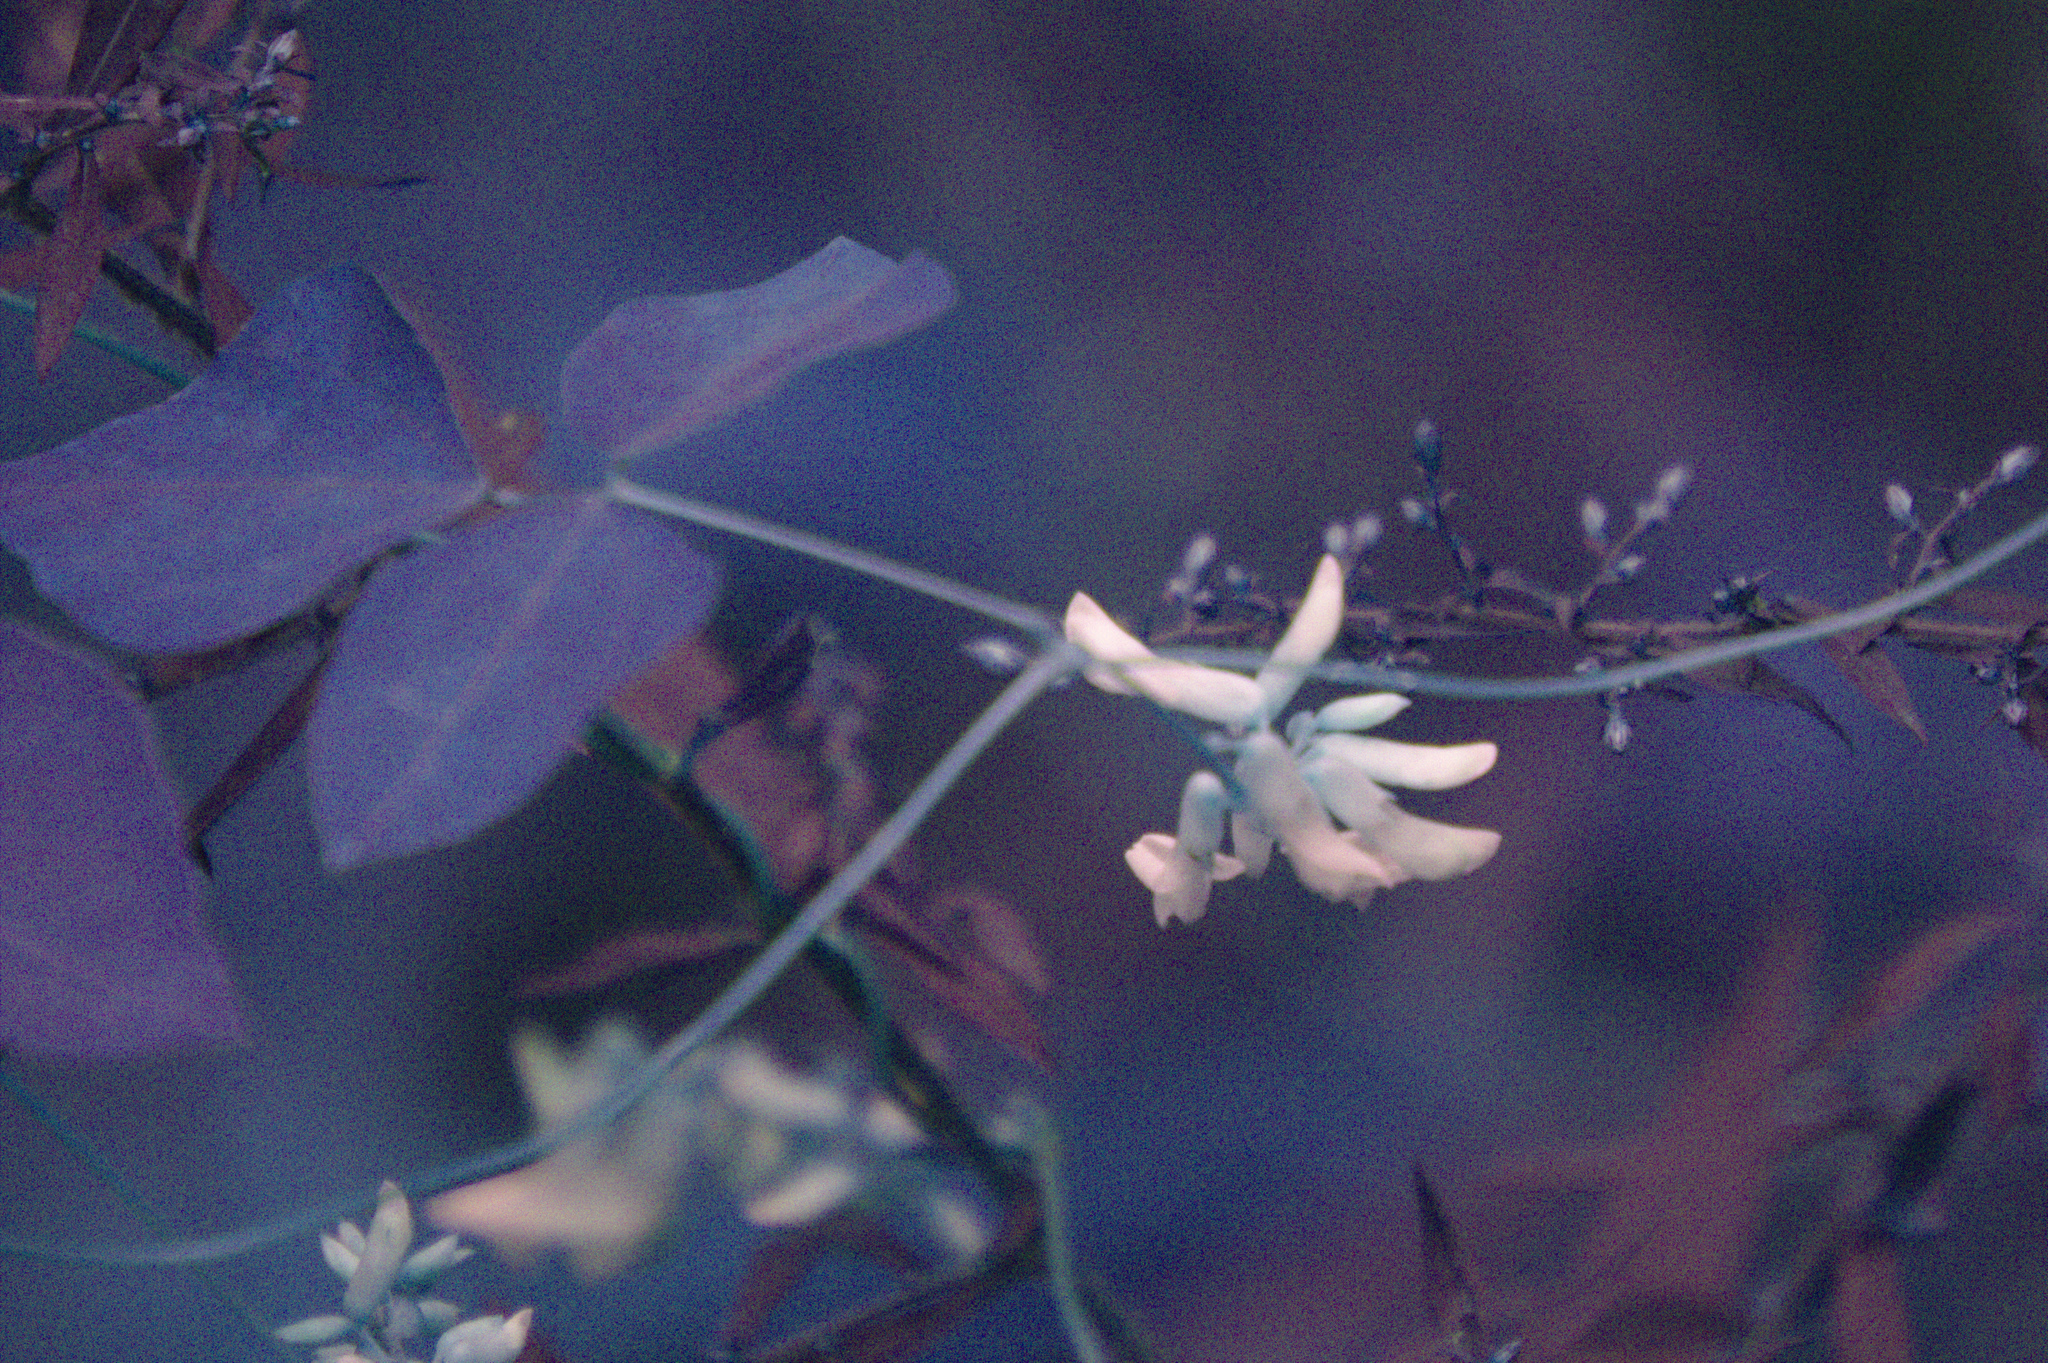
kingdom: Plantae
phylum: Tracheophyta
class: Magnoliopsida
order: Fabales
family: Fabaceae
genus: Amphicarpaea
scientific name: Amphicarpaea bracteata
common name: American hog peanut
